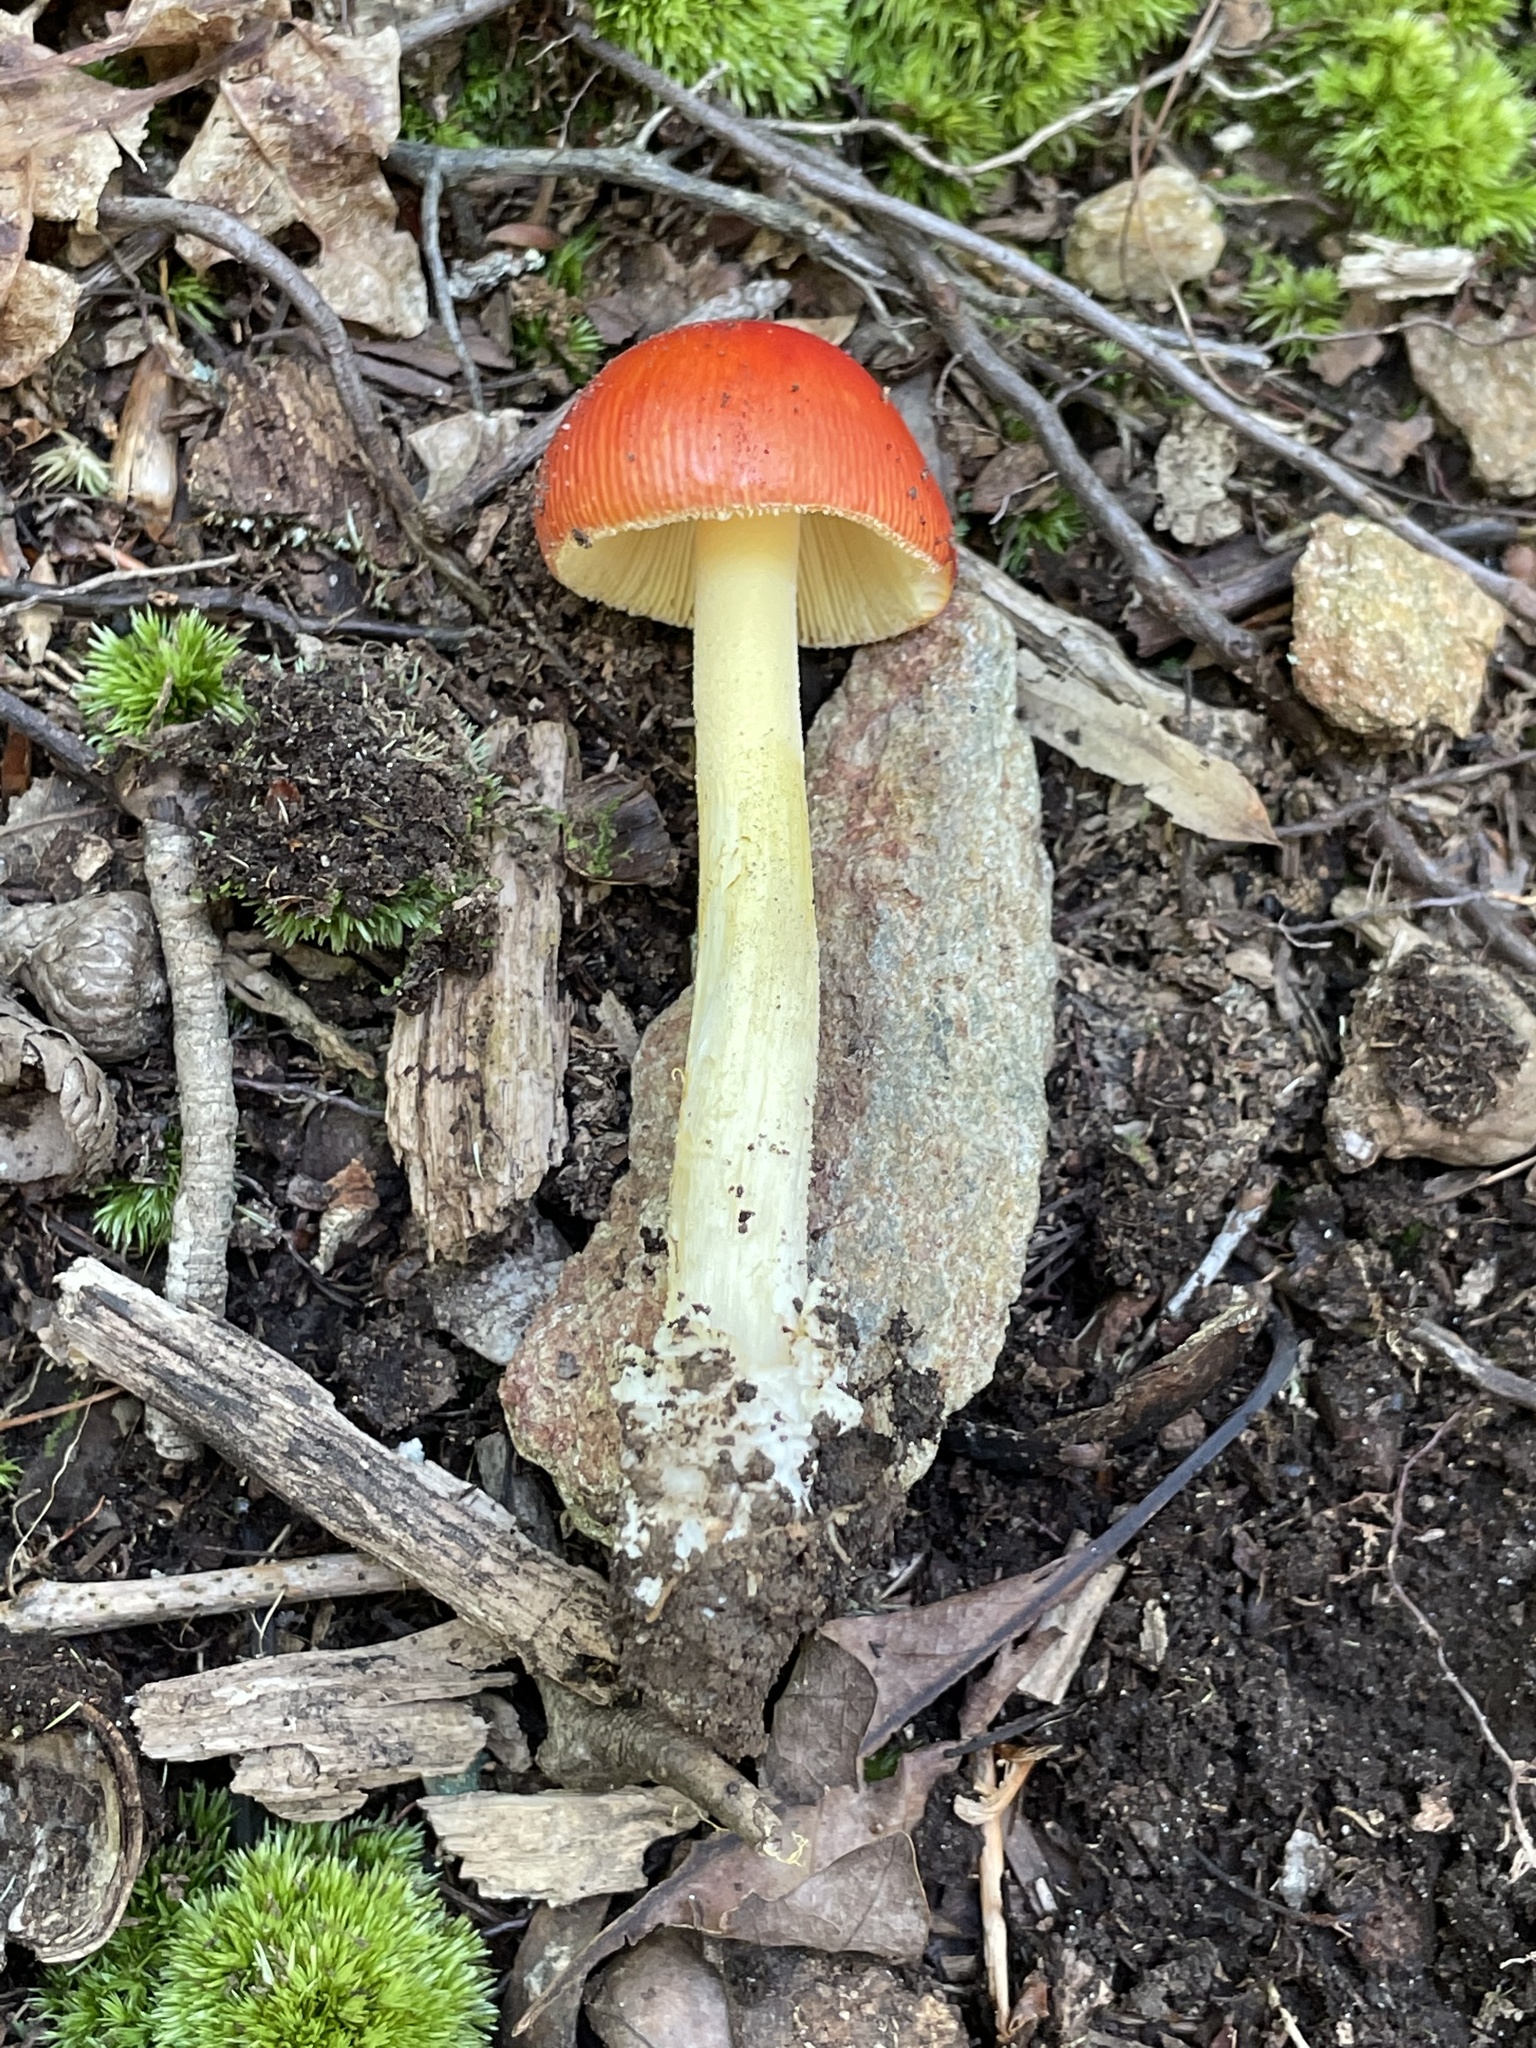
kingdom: Fungi
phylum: Basidiomycota
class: Agaricomycetes
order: Agaricales
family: Amanitaceae
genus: Amanita
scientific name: Amanita parcivolvata
